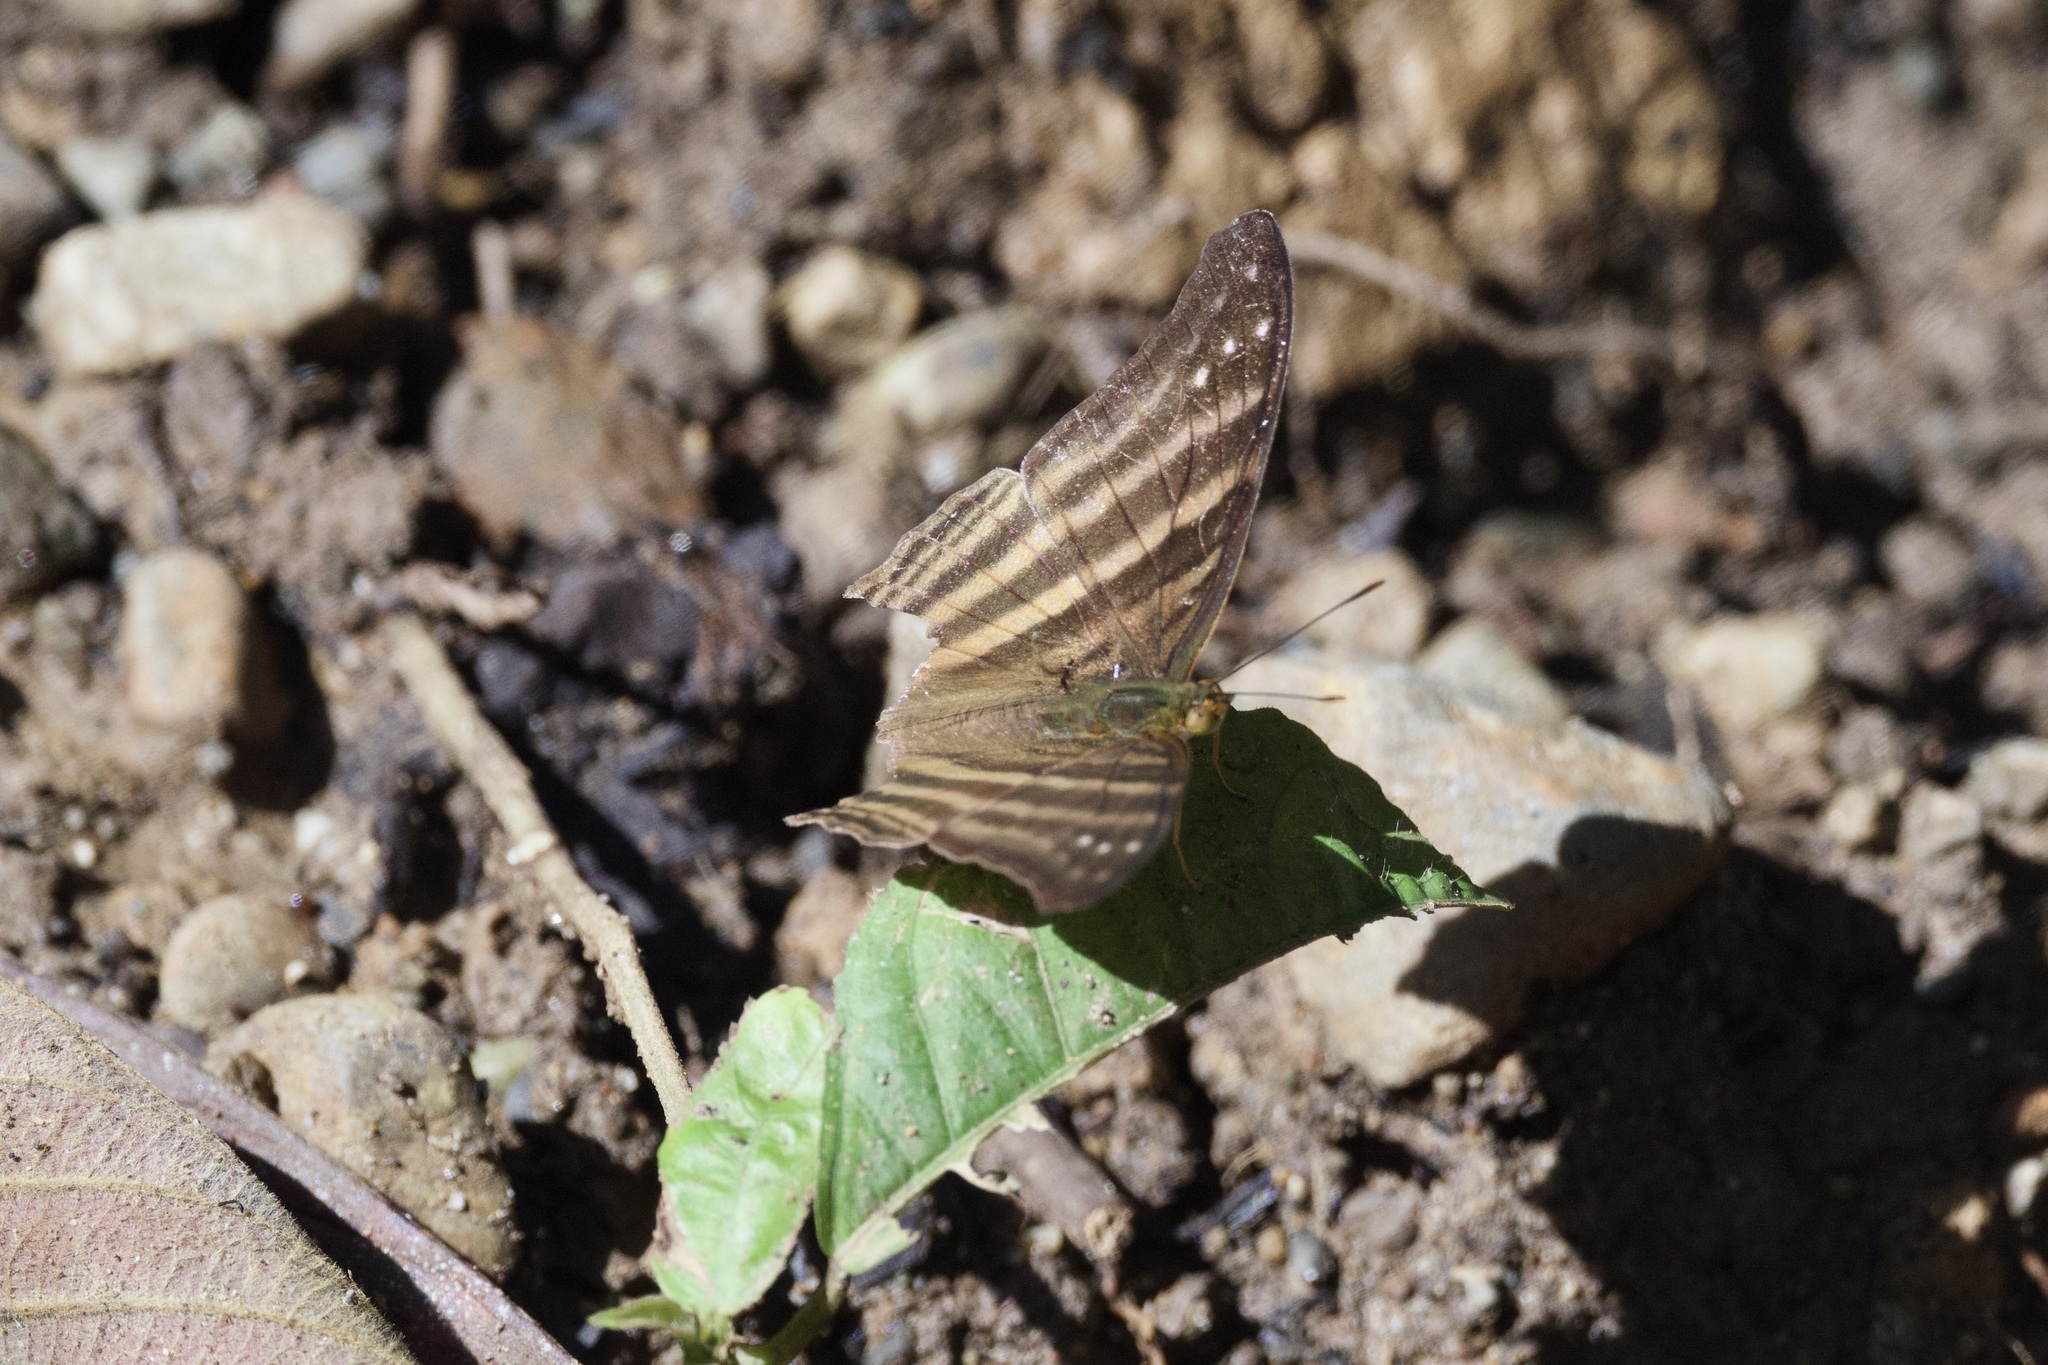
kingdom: Animalia
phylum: Arthropoda
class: Insecta
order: Lepidoptera
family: Nymphalidae
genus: Marpesia
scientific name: Marpesia chiron
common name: Many-banded daggerwing
